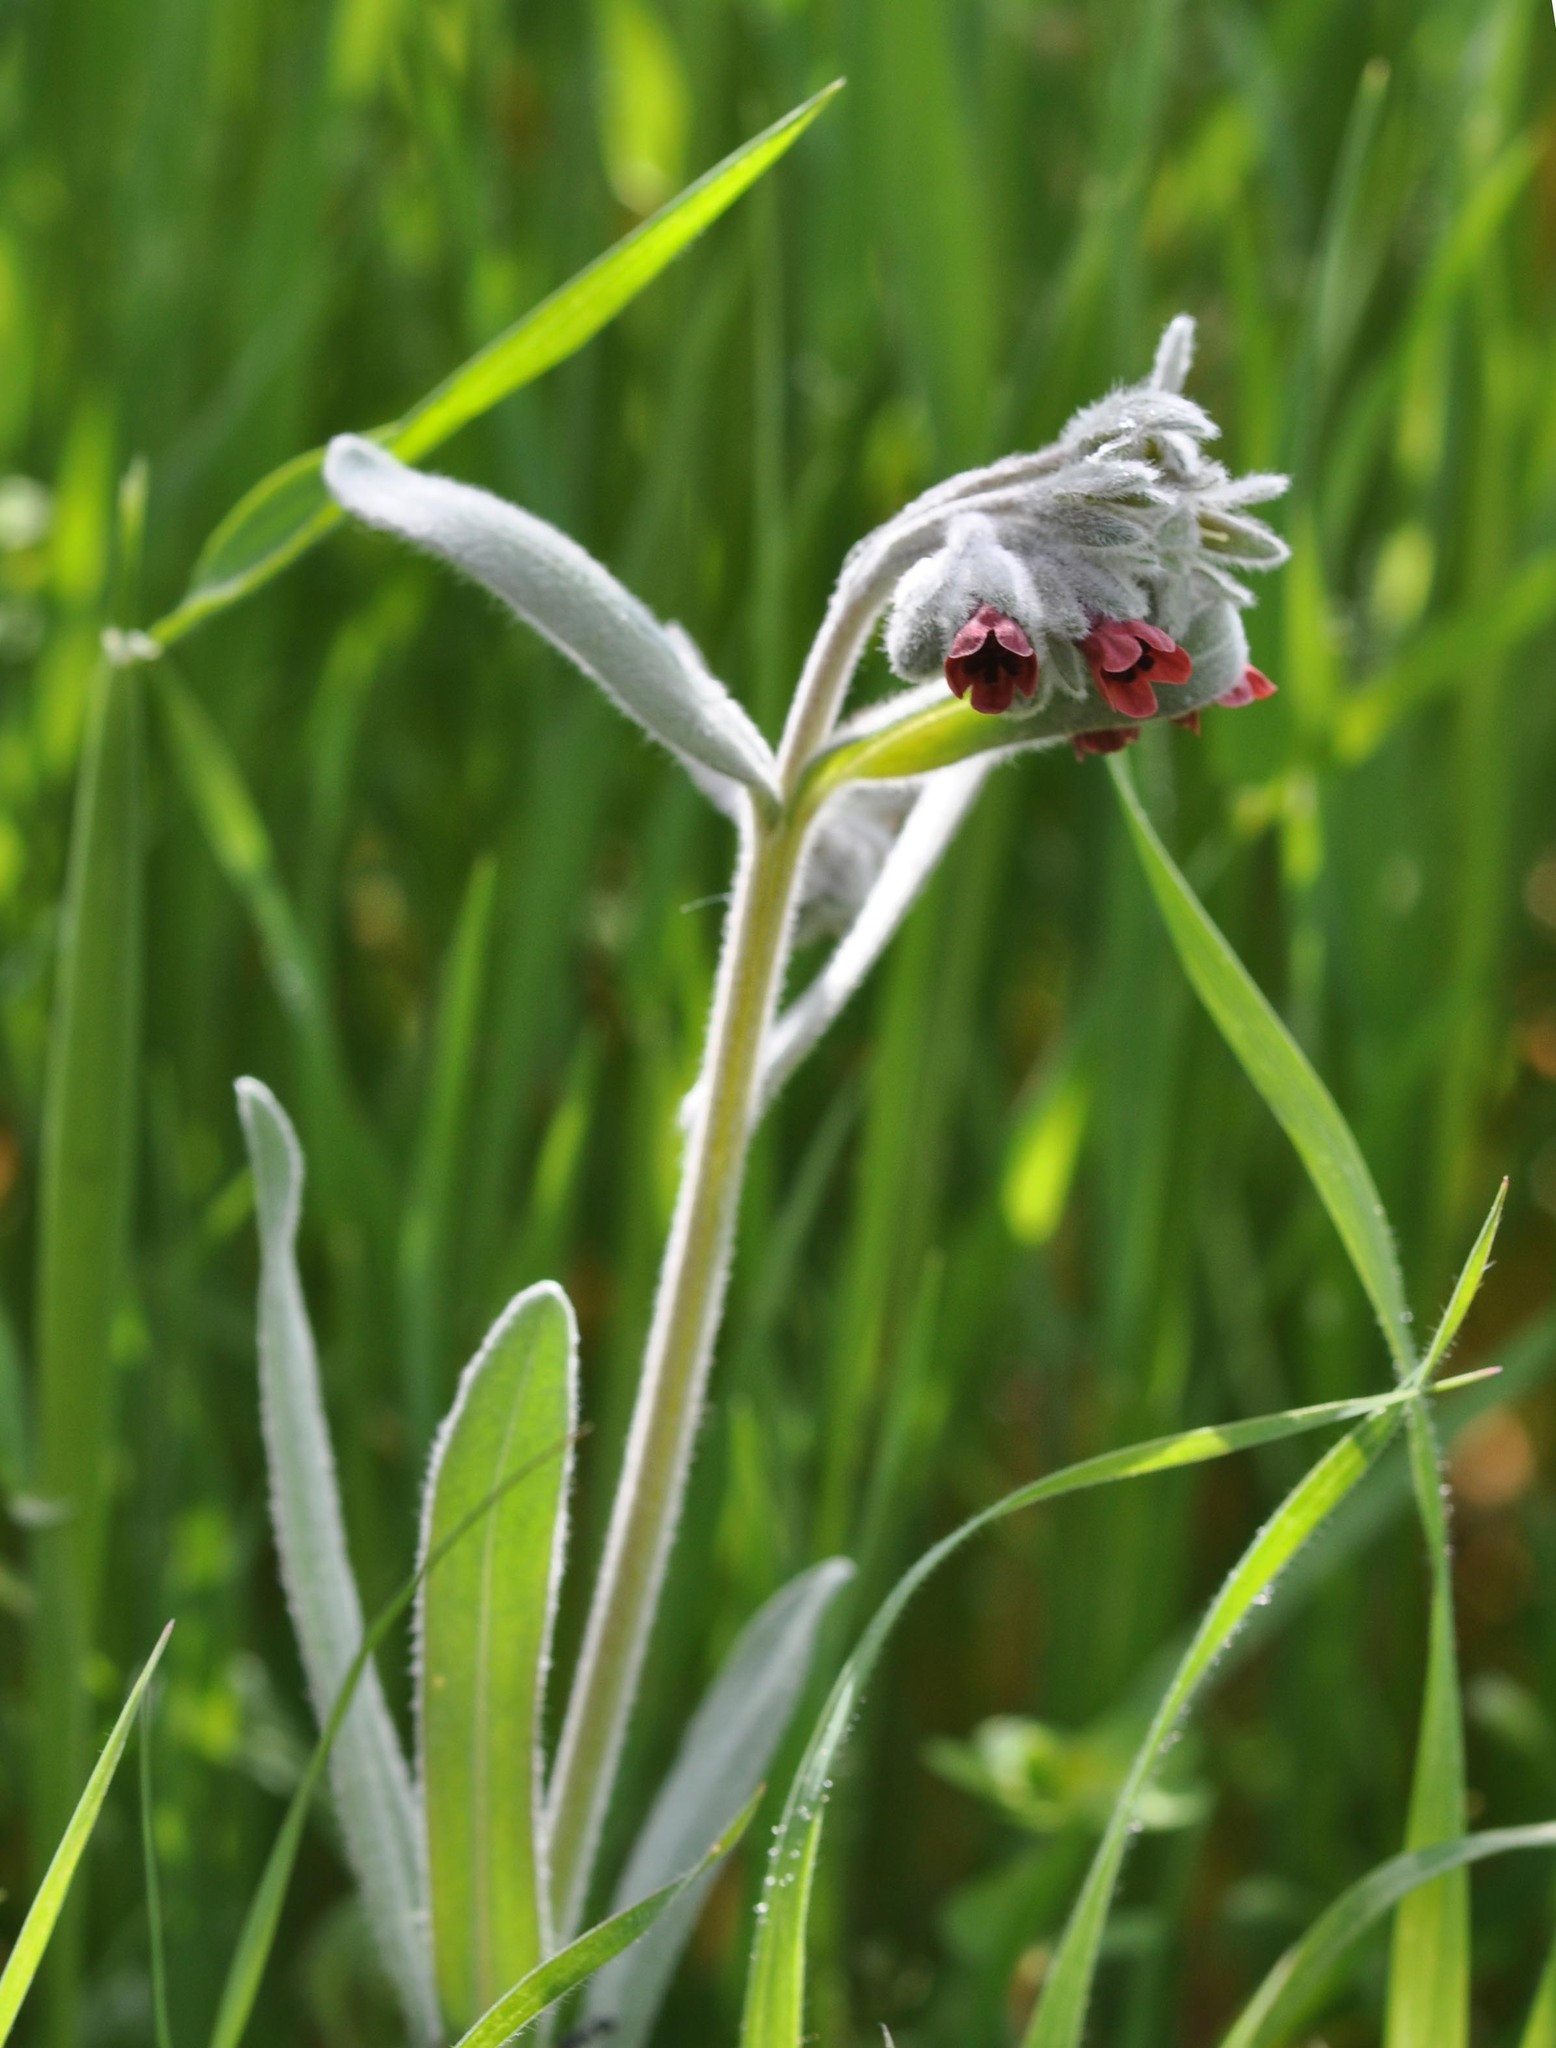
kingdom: Plantae
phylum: Tracheophyta
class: Magnoliopsida
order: Boraginales
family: Boraginaceae
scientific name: Boraginaceae
